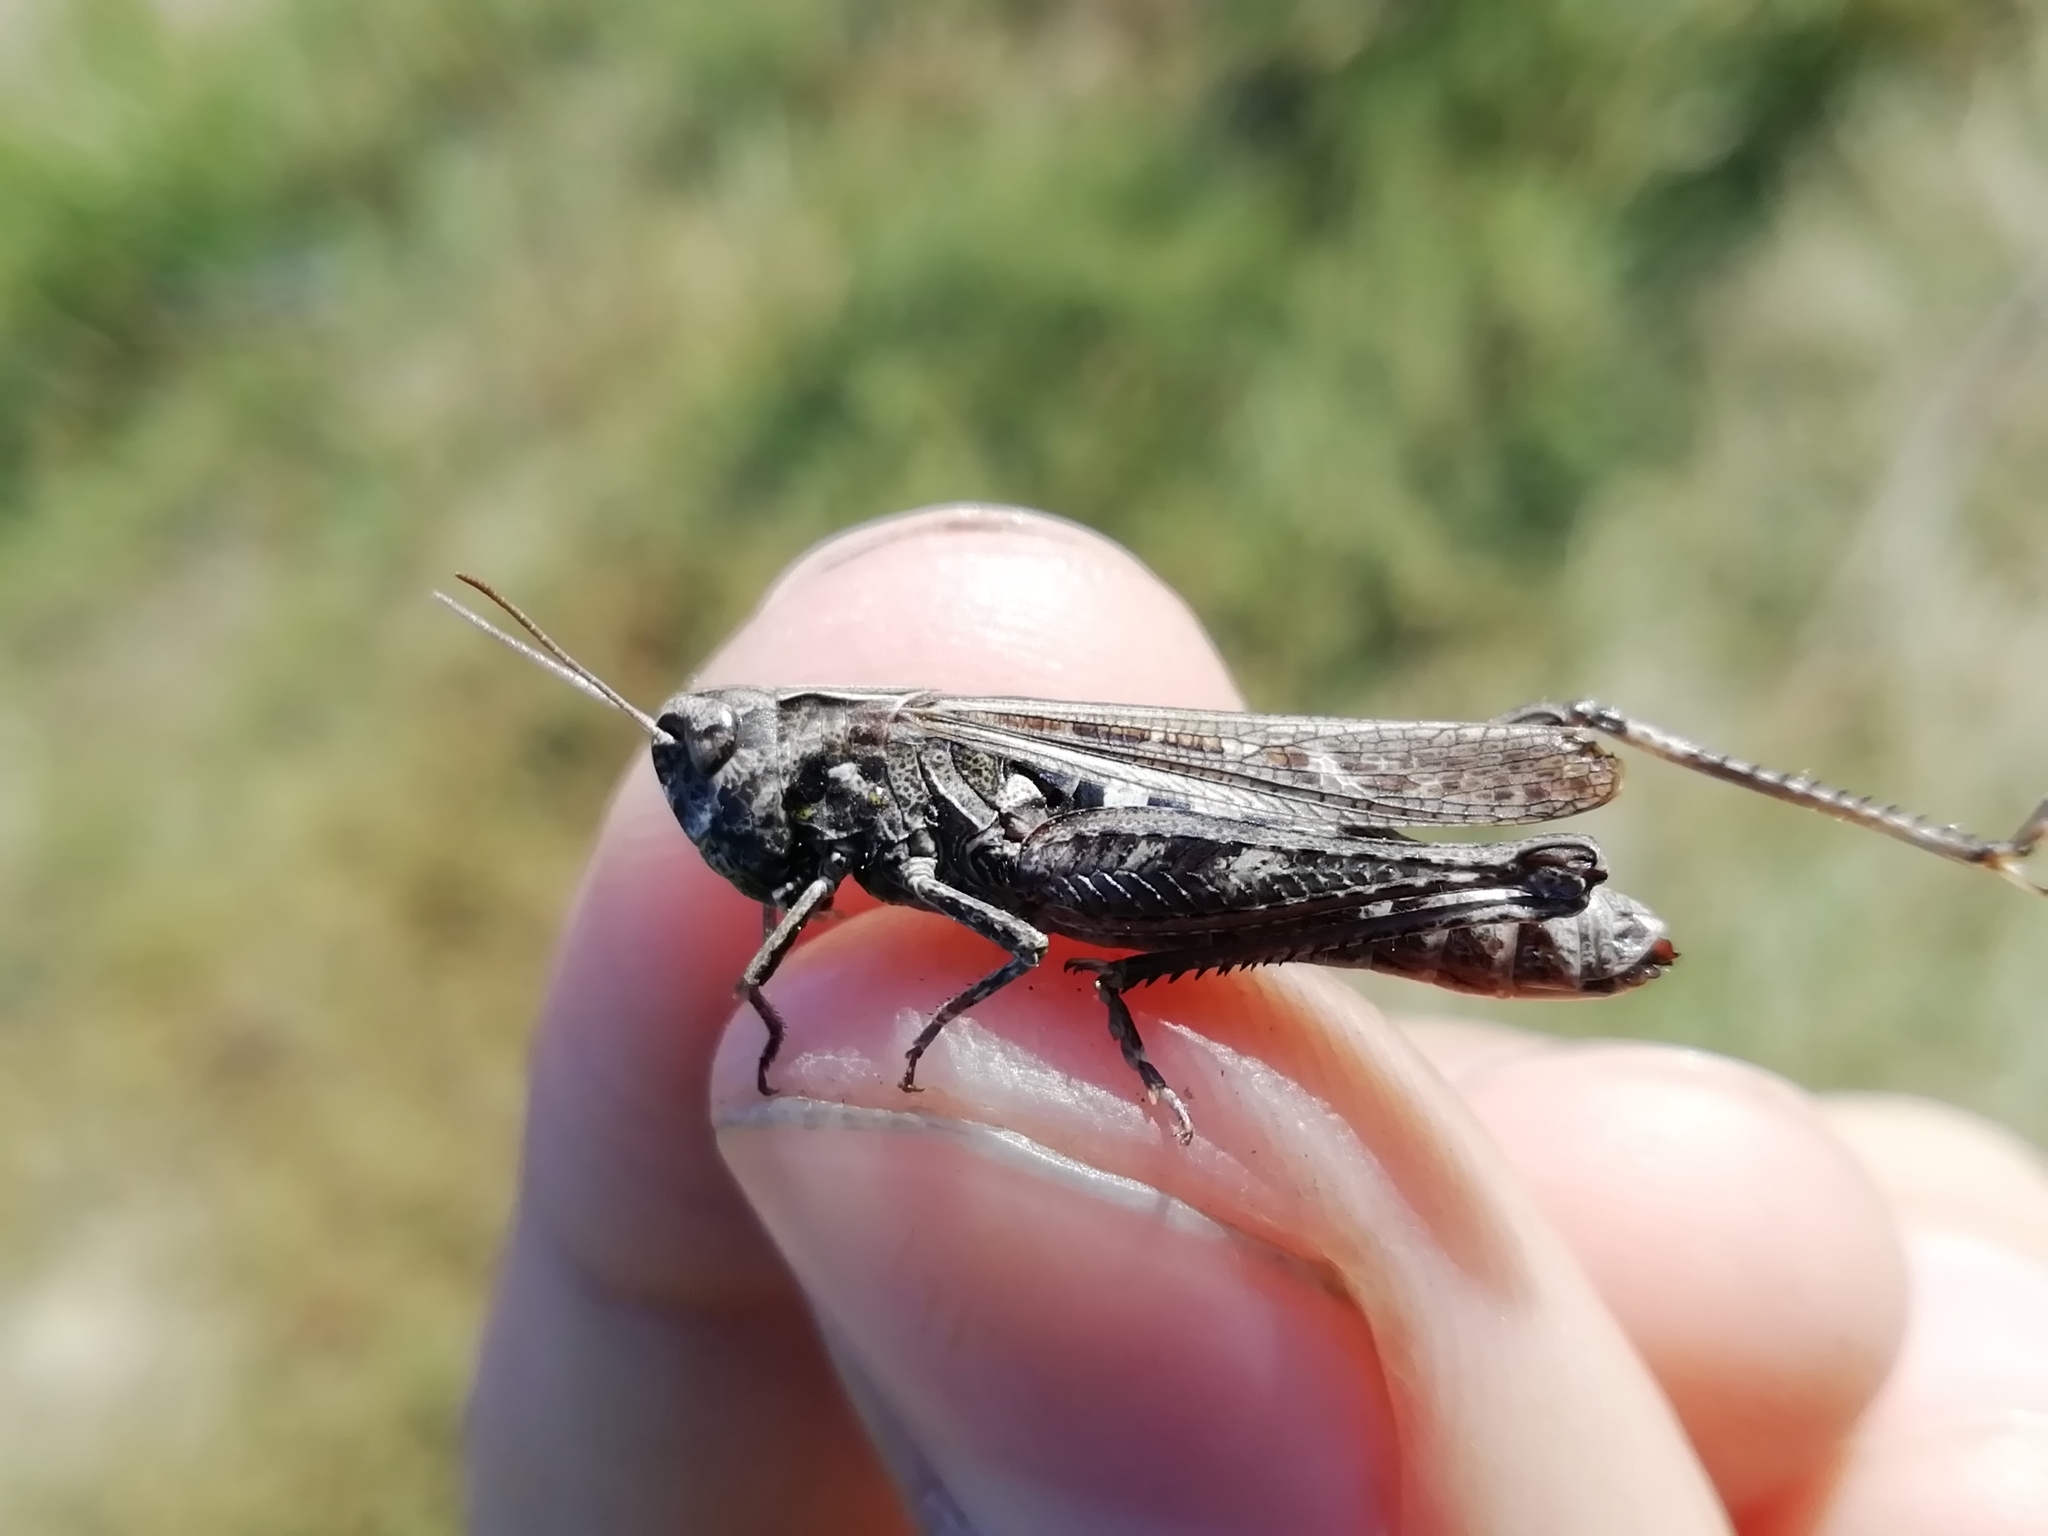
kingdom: Animalia
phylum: Arthropoda
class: Insecta
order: Orthoptera
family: Acrididae
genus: Omocestus
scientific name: Omocestus haemorrhoidalis
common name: Orange-tipped grasshopper
